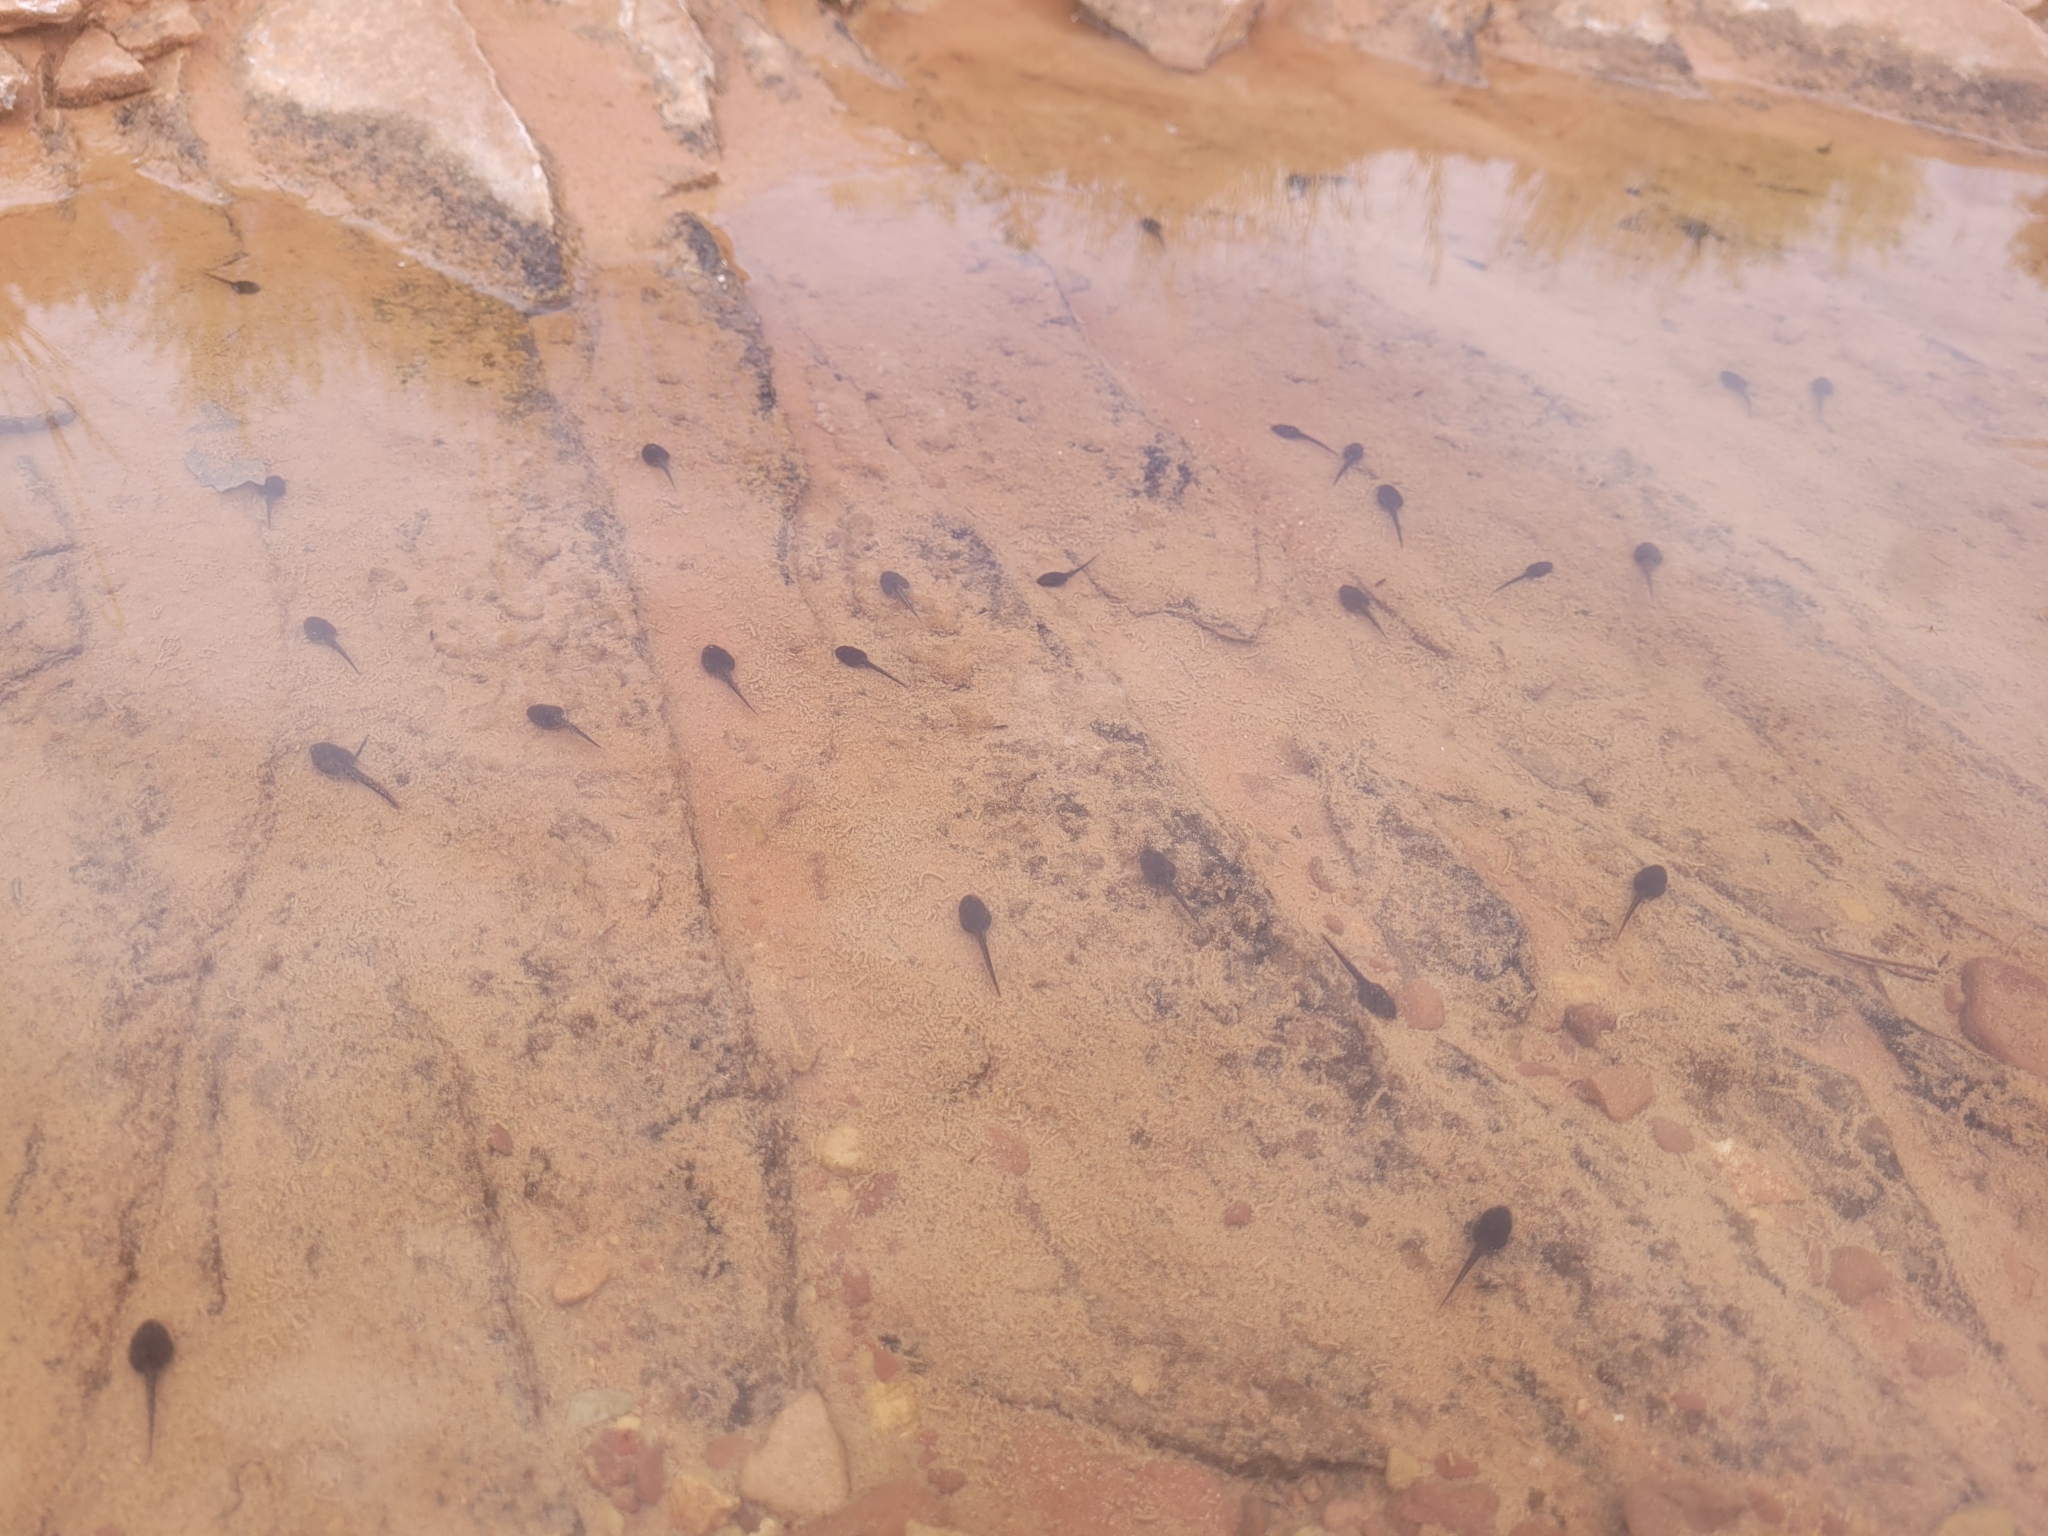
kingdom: Animalia
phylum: Chordata
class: Amphibia
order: Anura
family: Bufonidae
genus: Anaxyrus
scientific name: Anaxyrus
